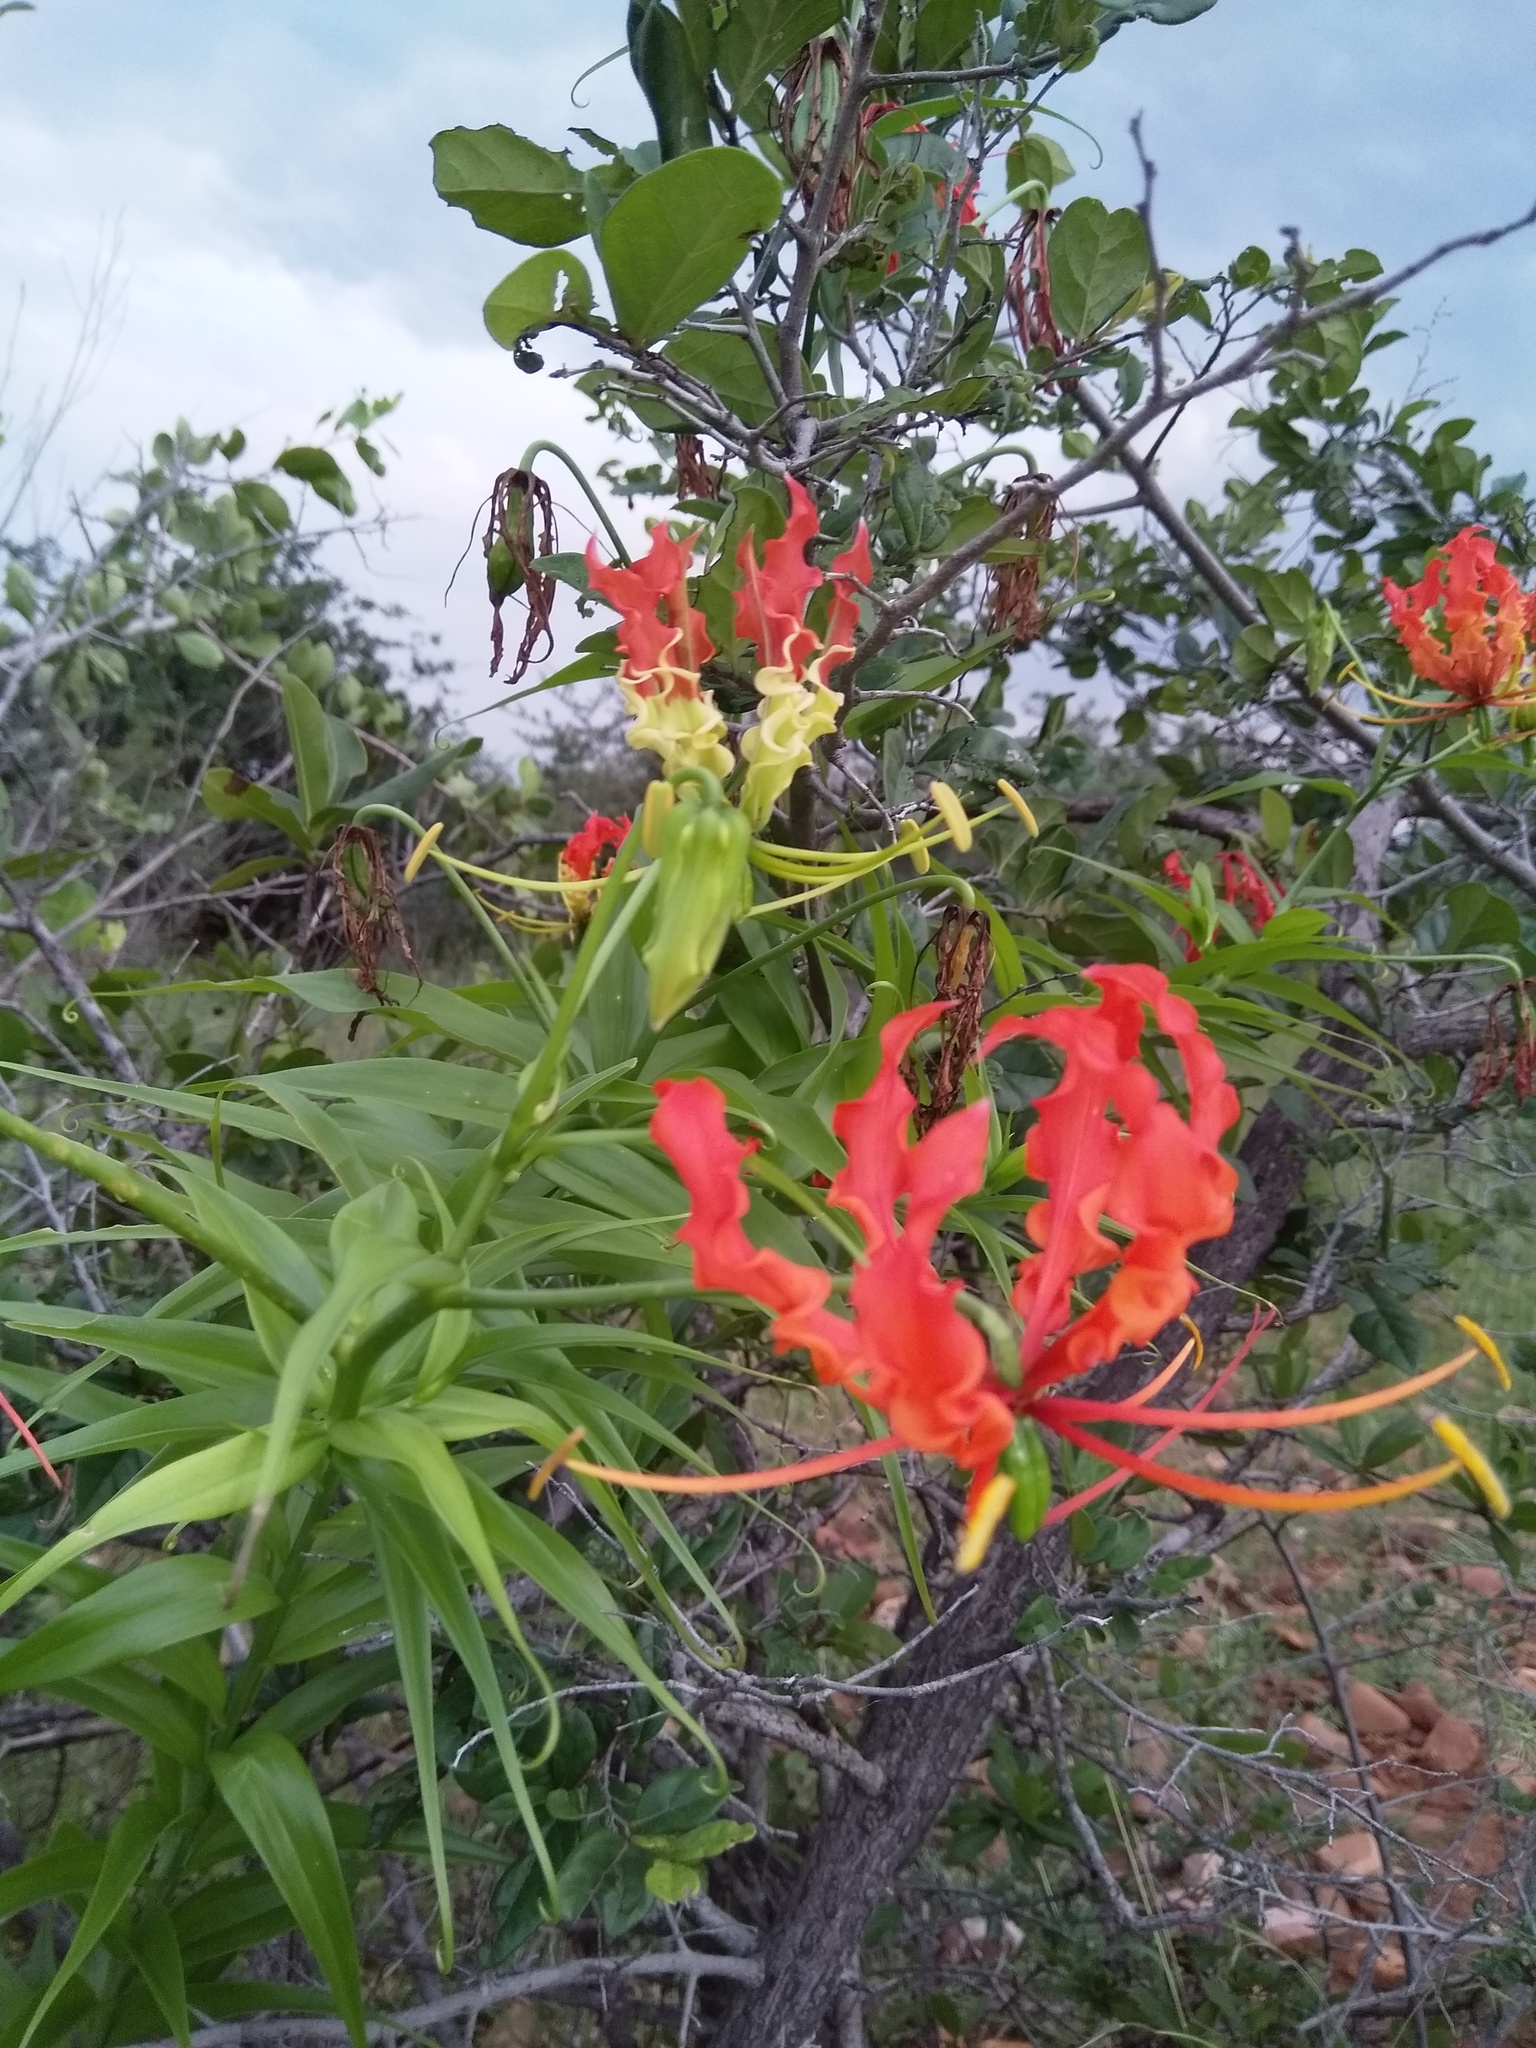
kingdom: Plantae
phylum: Tracheophyta
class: Liliopsida
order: Liliales
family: Colchicaceae
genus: Gloriosa
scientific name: Gloriosa superba
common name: Flame lily
